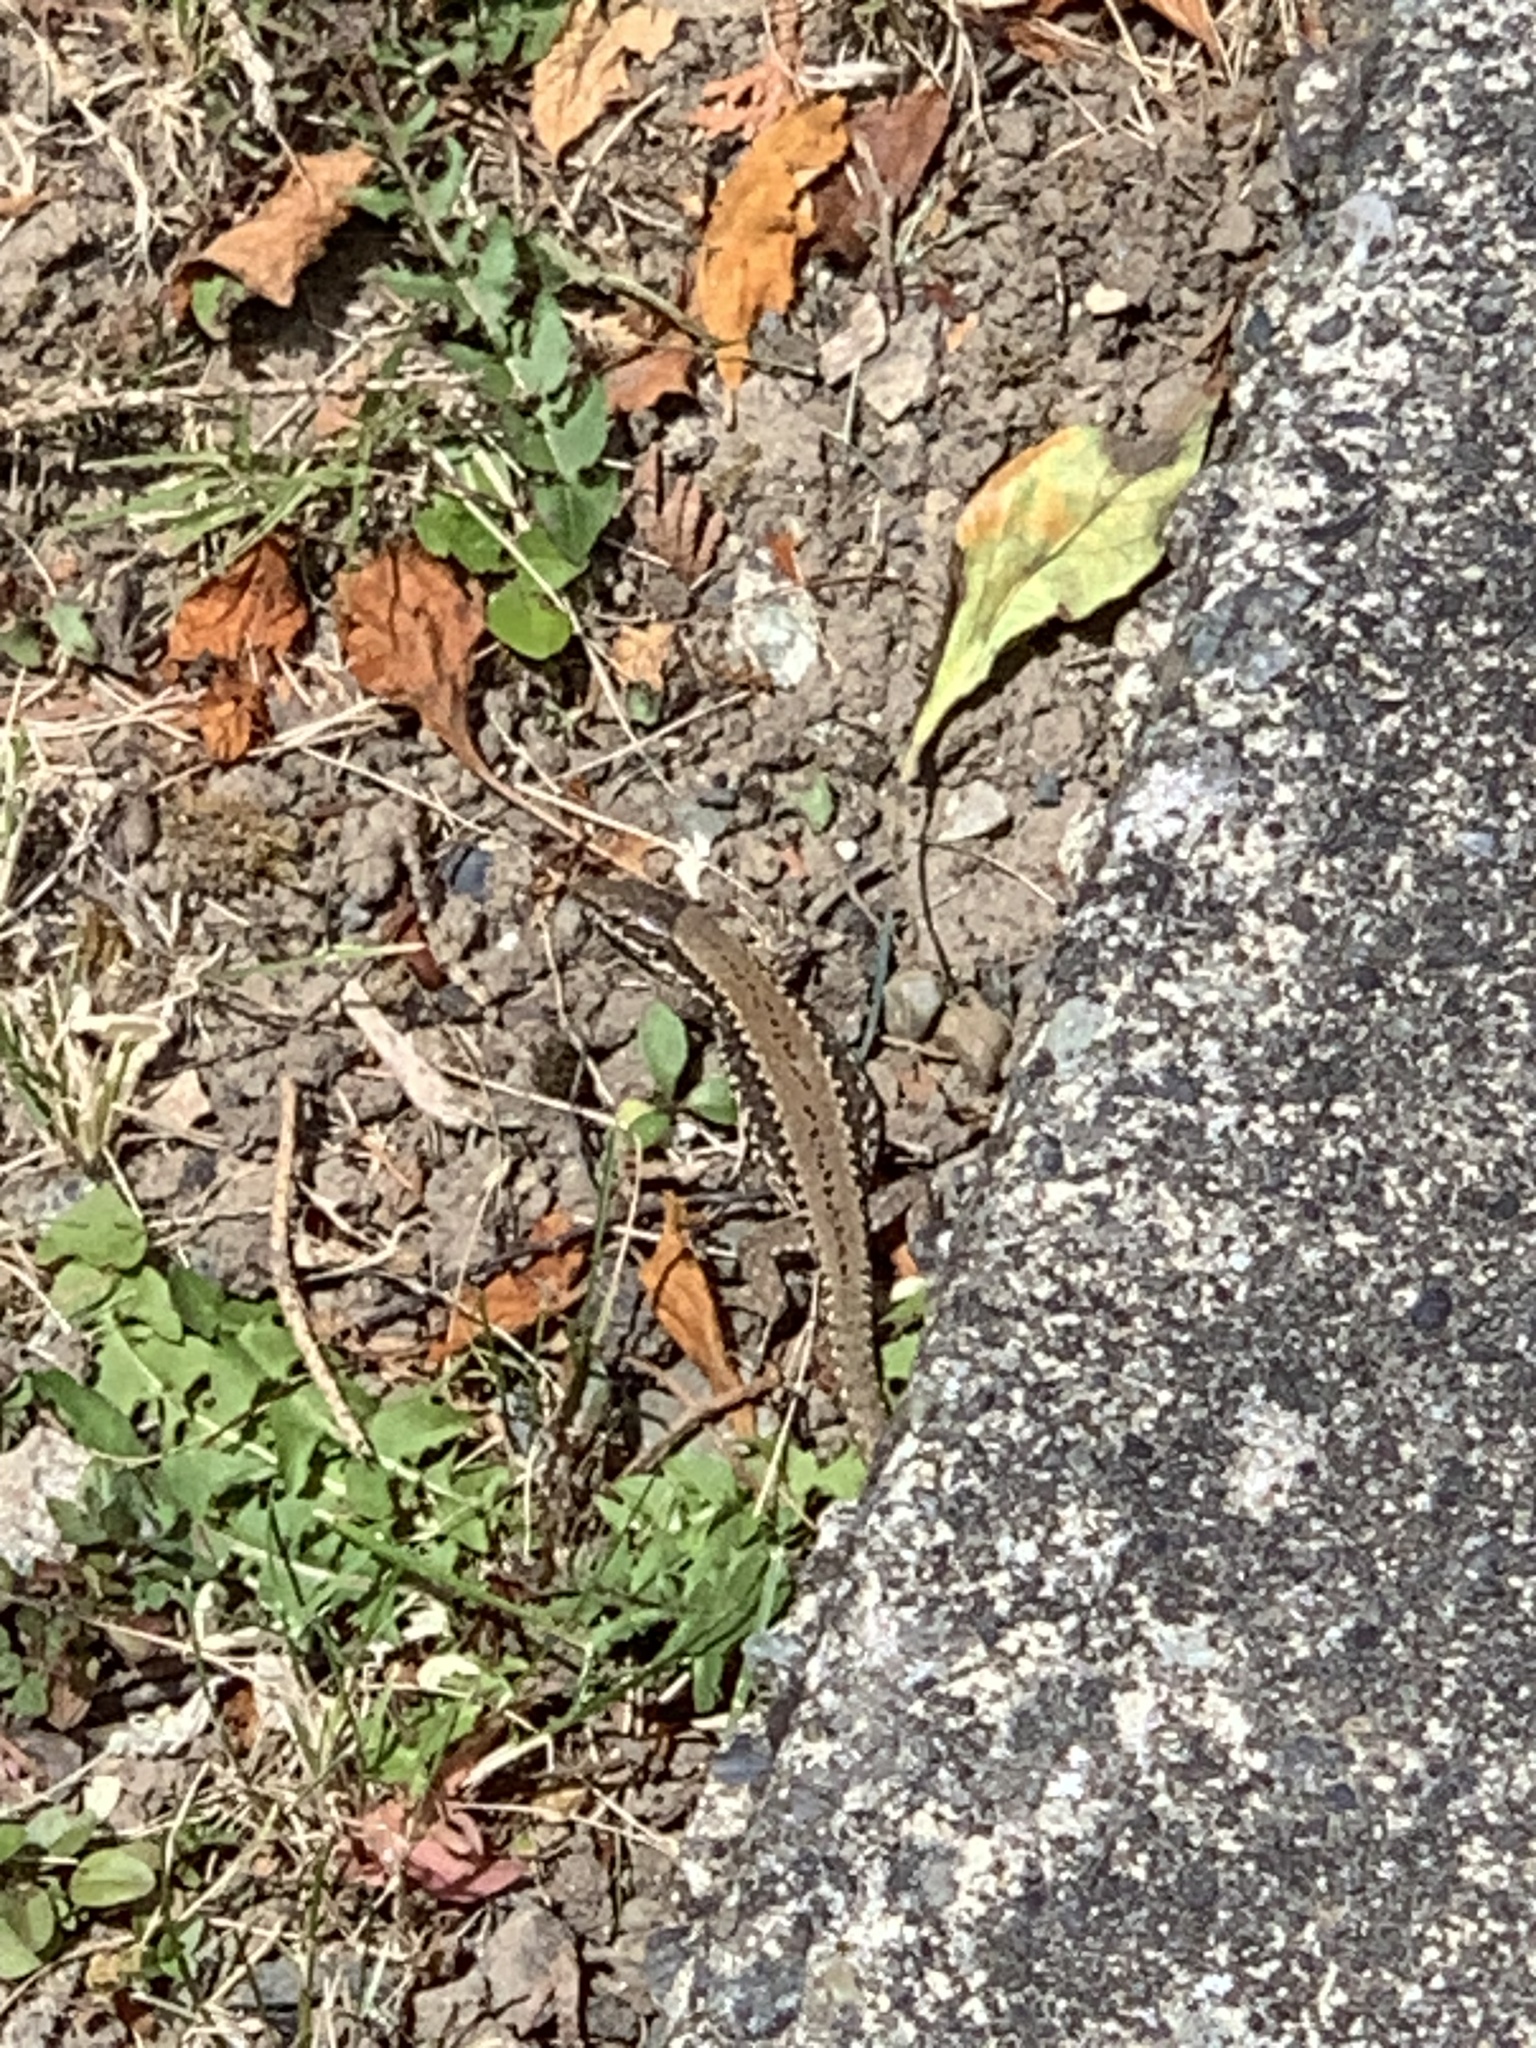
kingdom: Animalia
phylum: Chordata
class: Squamata
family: Lacertidae
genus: Podarcis
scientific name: Podarcis muralis
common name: Common wall lizard
